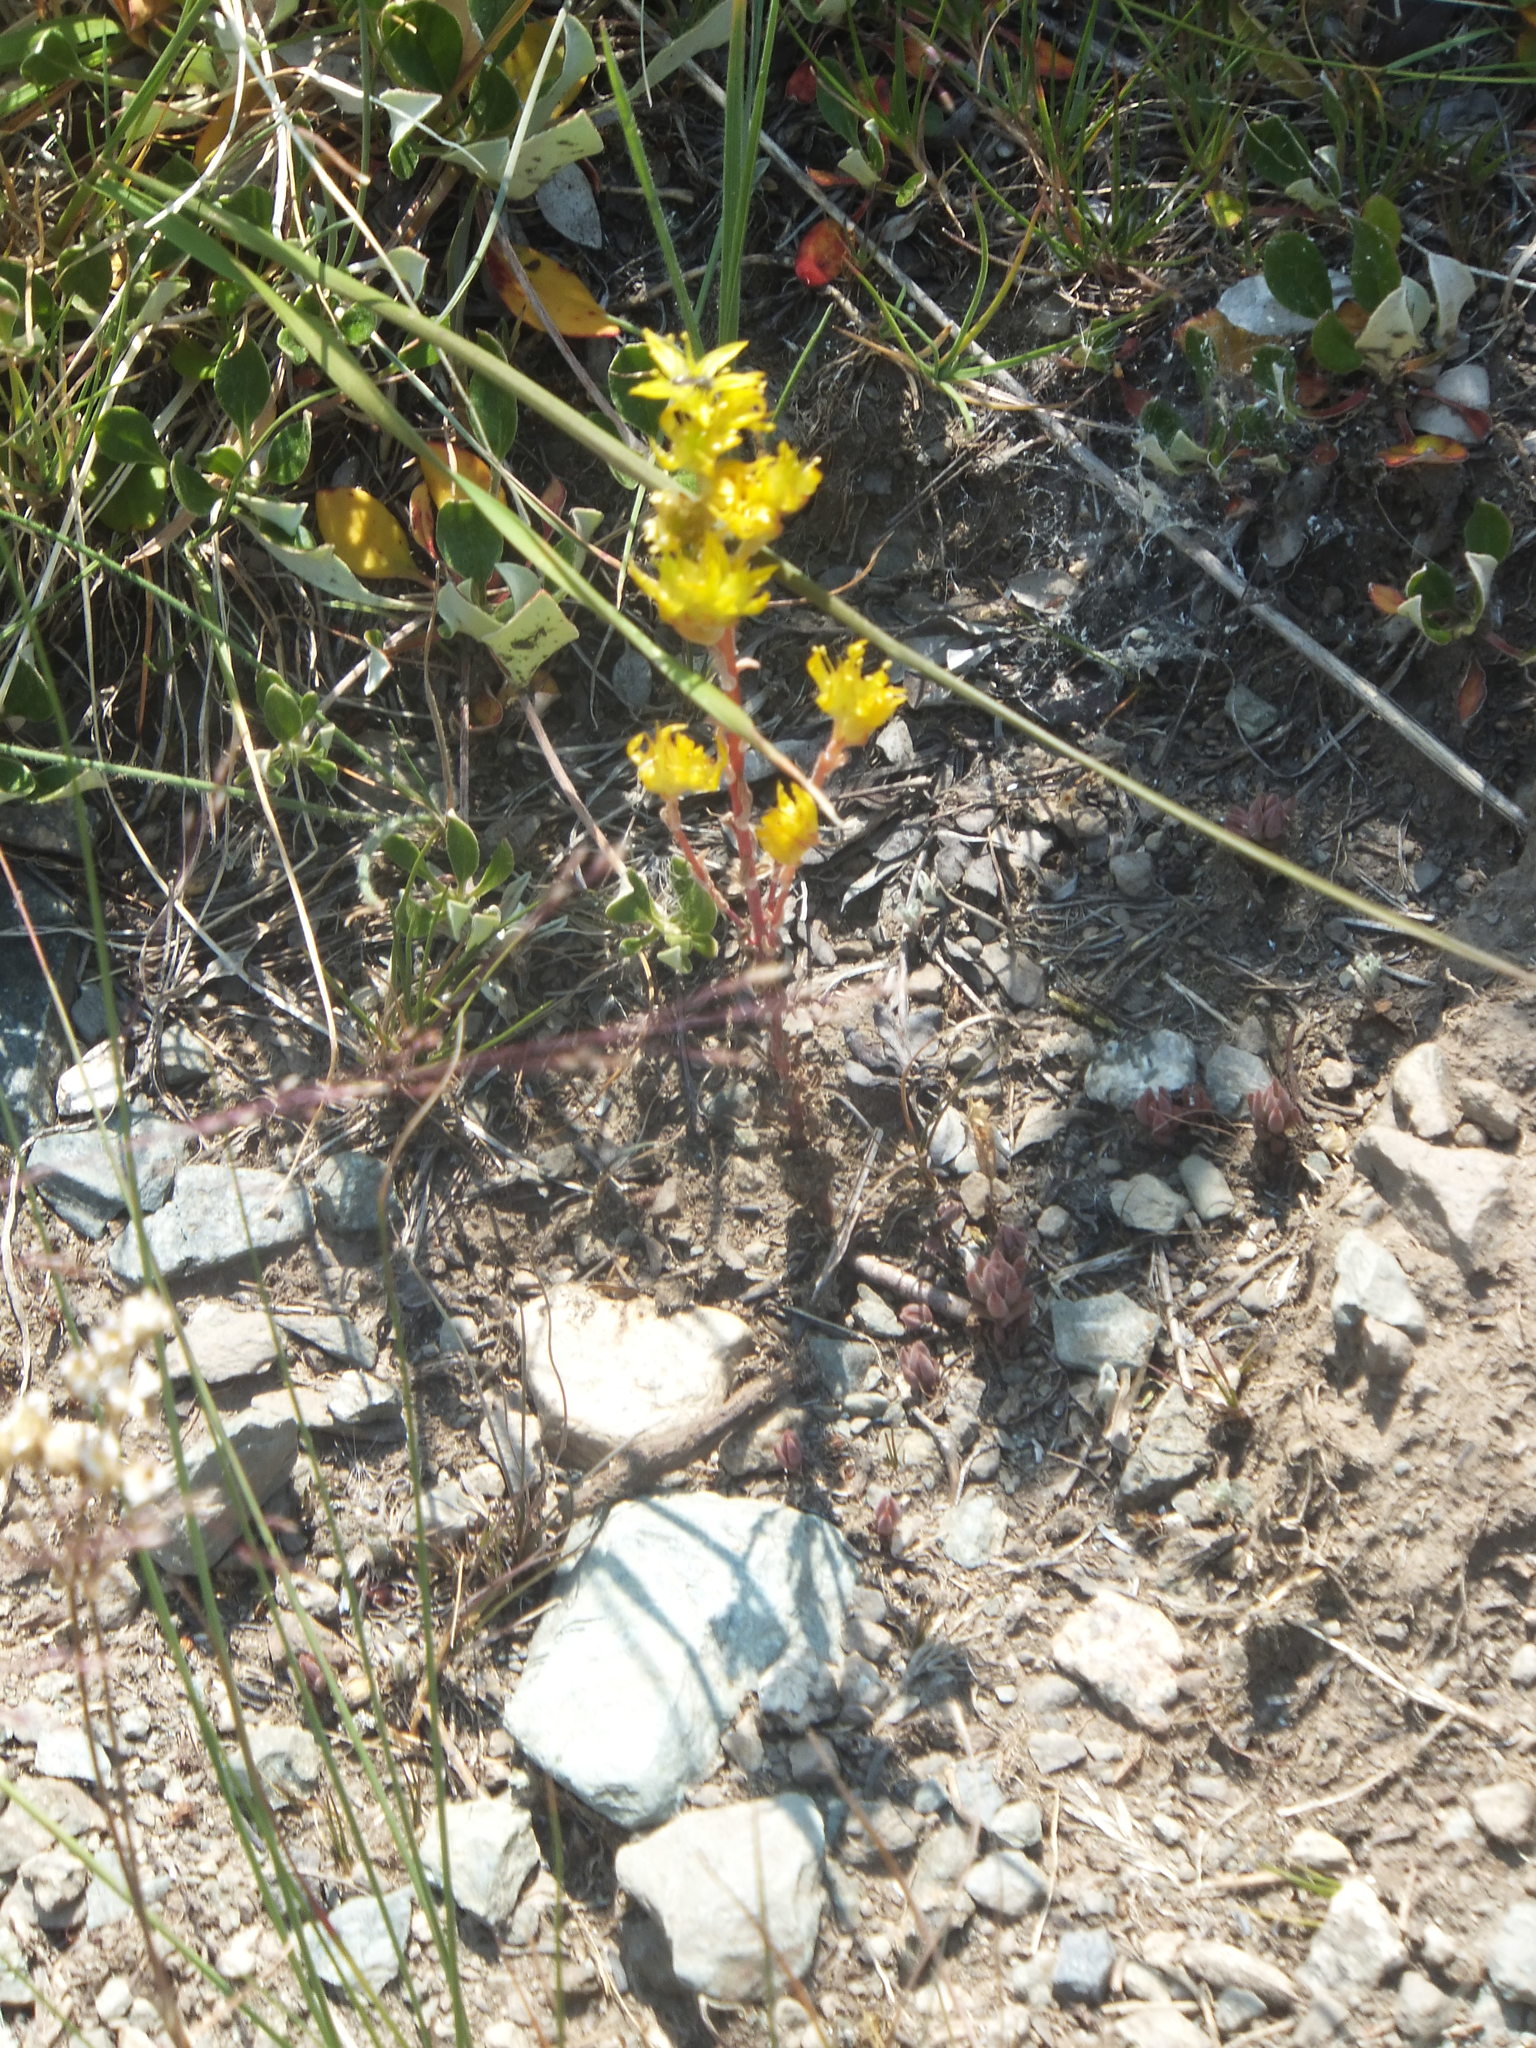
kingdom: Plantae
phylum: Tracheophyta
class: Magnoliopsida
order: Saxifragales
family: Crassulaceae
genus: Sedum
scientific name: Sedum lanceolatum
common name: Common stonecrop
